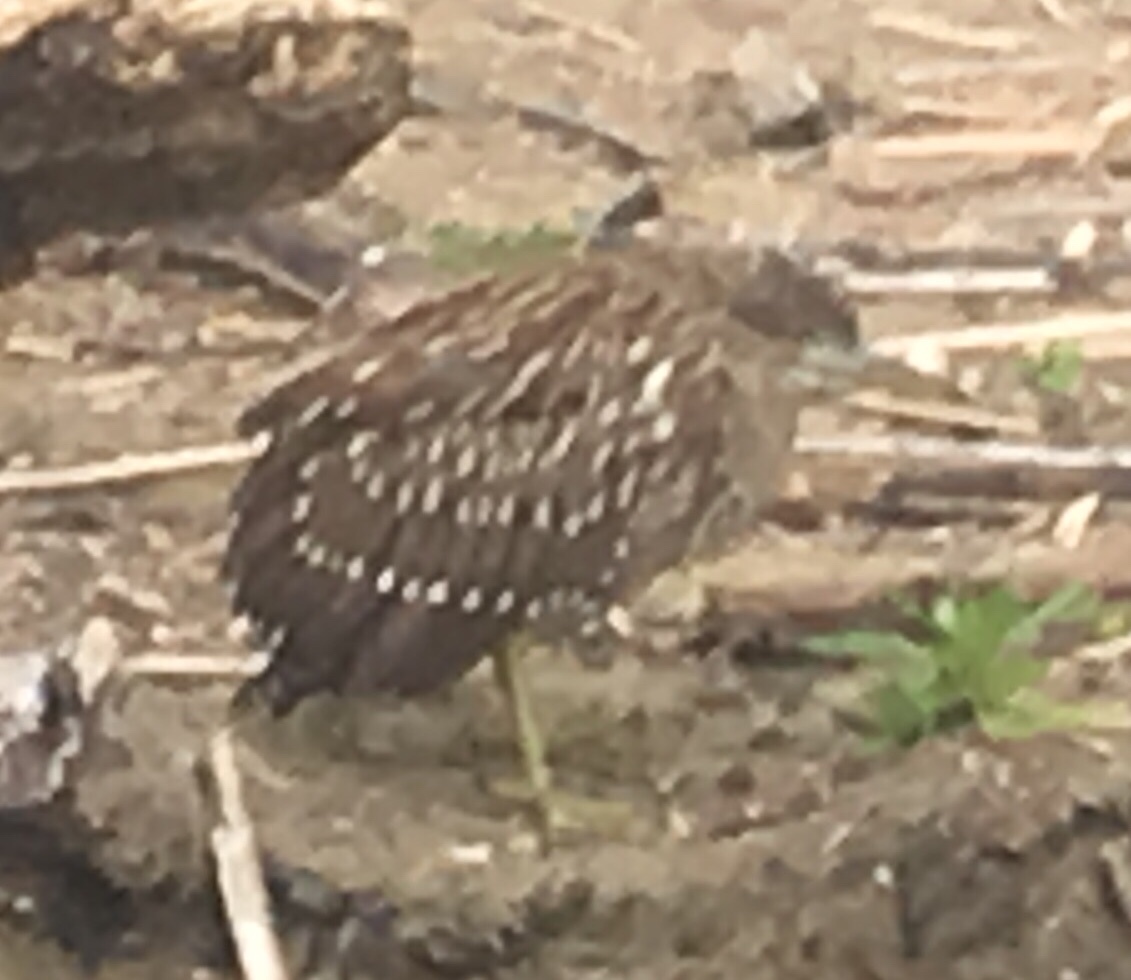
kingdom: Animalia
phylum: Chordata
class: Aves
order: Pelecaniformes
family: Ardeidae
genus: Nycticorax
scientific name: Nycticorax nycticorax
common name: Black-crowned night heron
